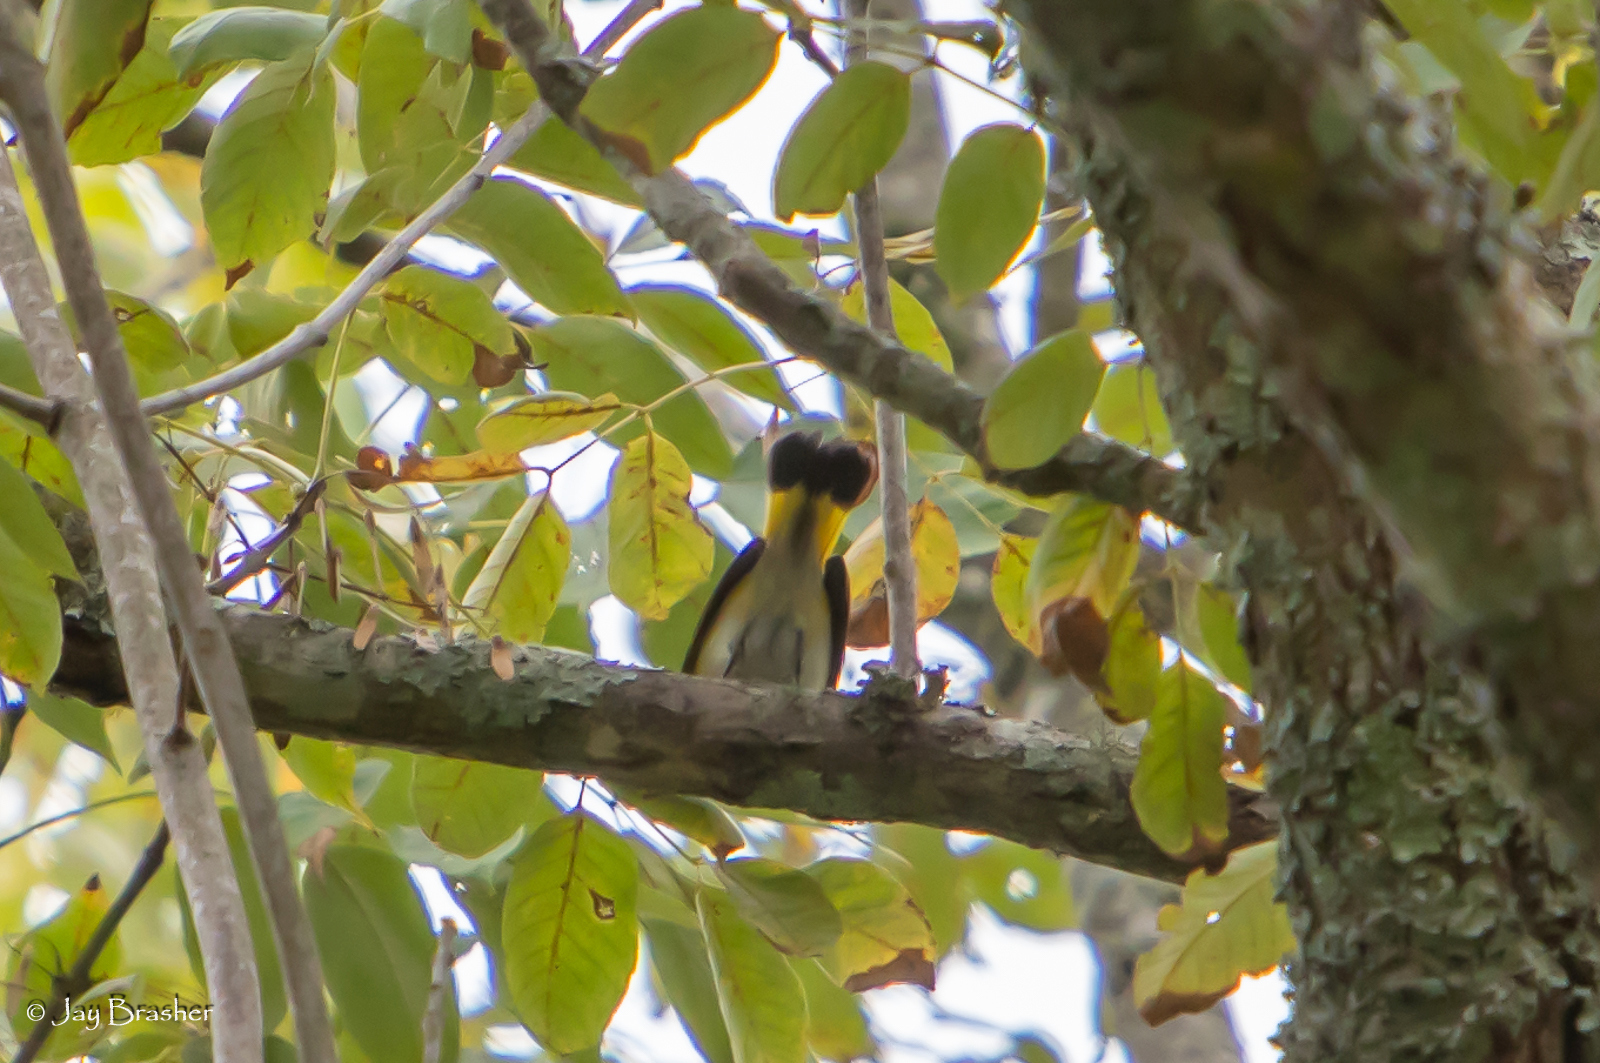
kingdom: Animalia
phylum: Chordata
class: Aves
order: Passeriformes
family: Parulidae
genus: Setophaga
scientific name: Setophaga ruticilla
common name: American redstart
